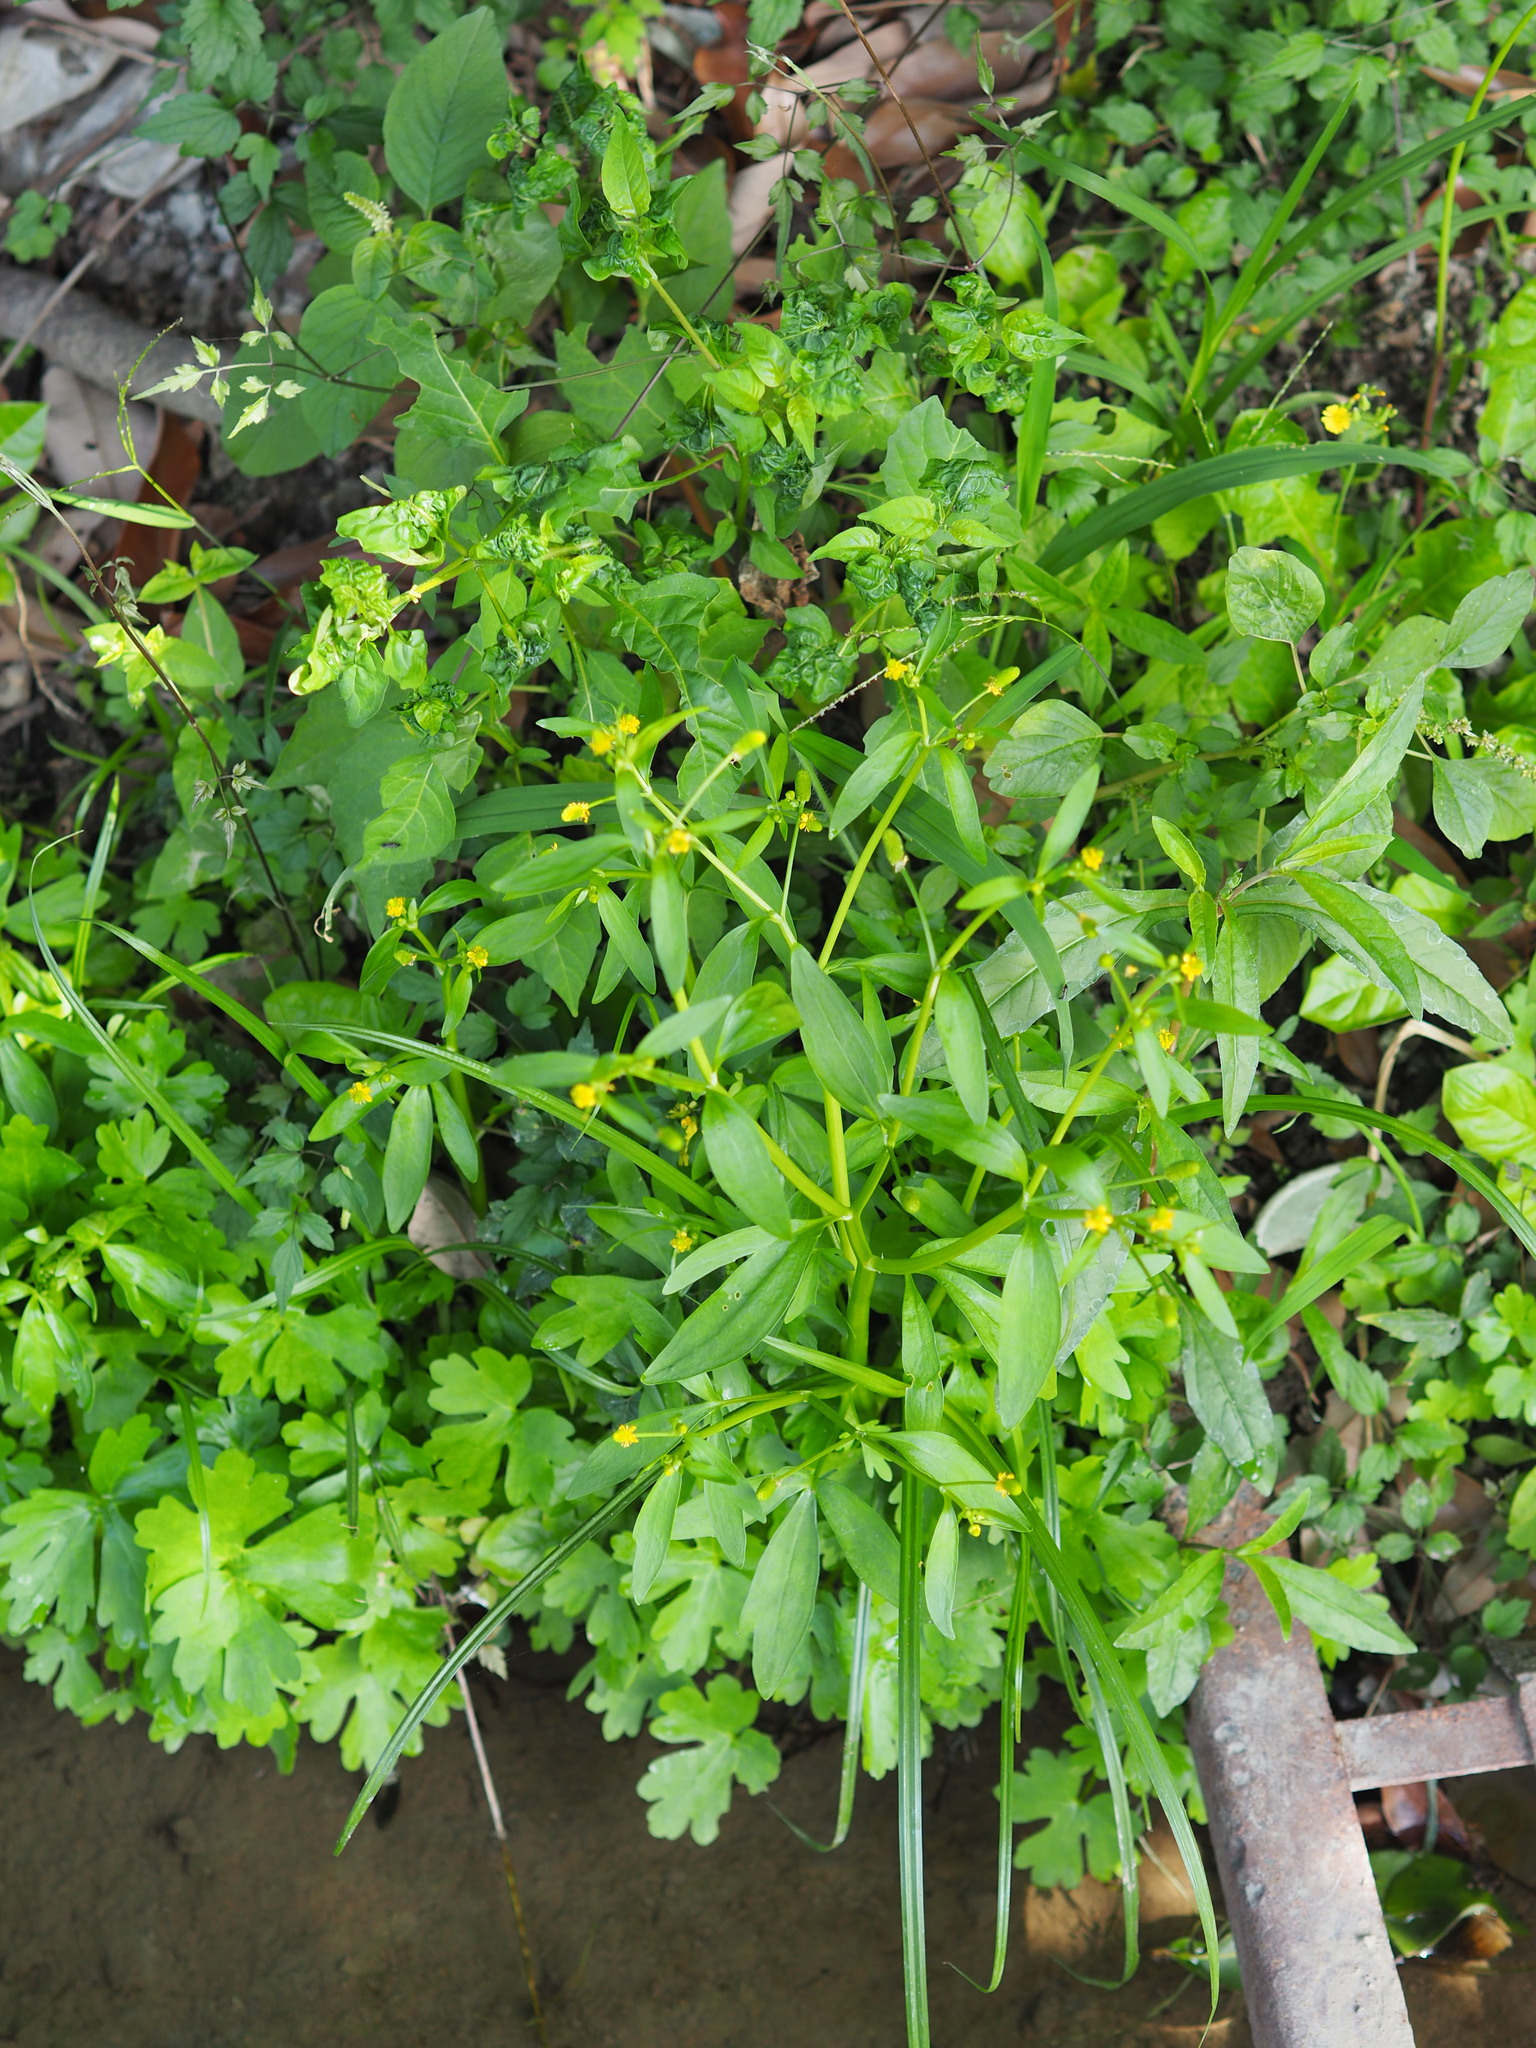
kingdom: Plantae
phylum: Tracheophyta
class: Magnoliopsida
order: Ranunculales
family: Ranunculaceae
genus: Ranunculus
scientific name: Ranunculus sceleratus
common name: Celery-leaved buttercup
